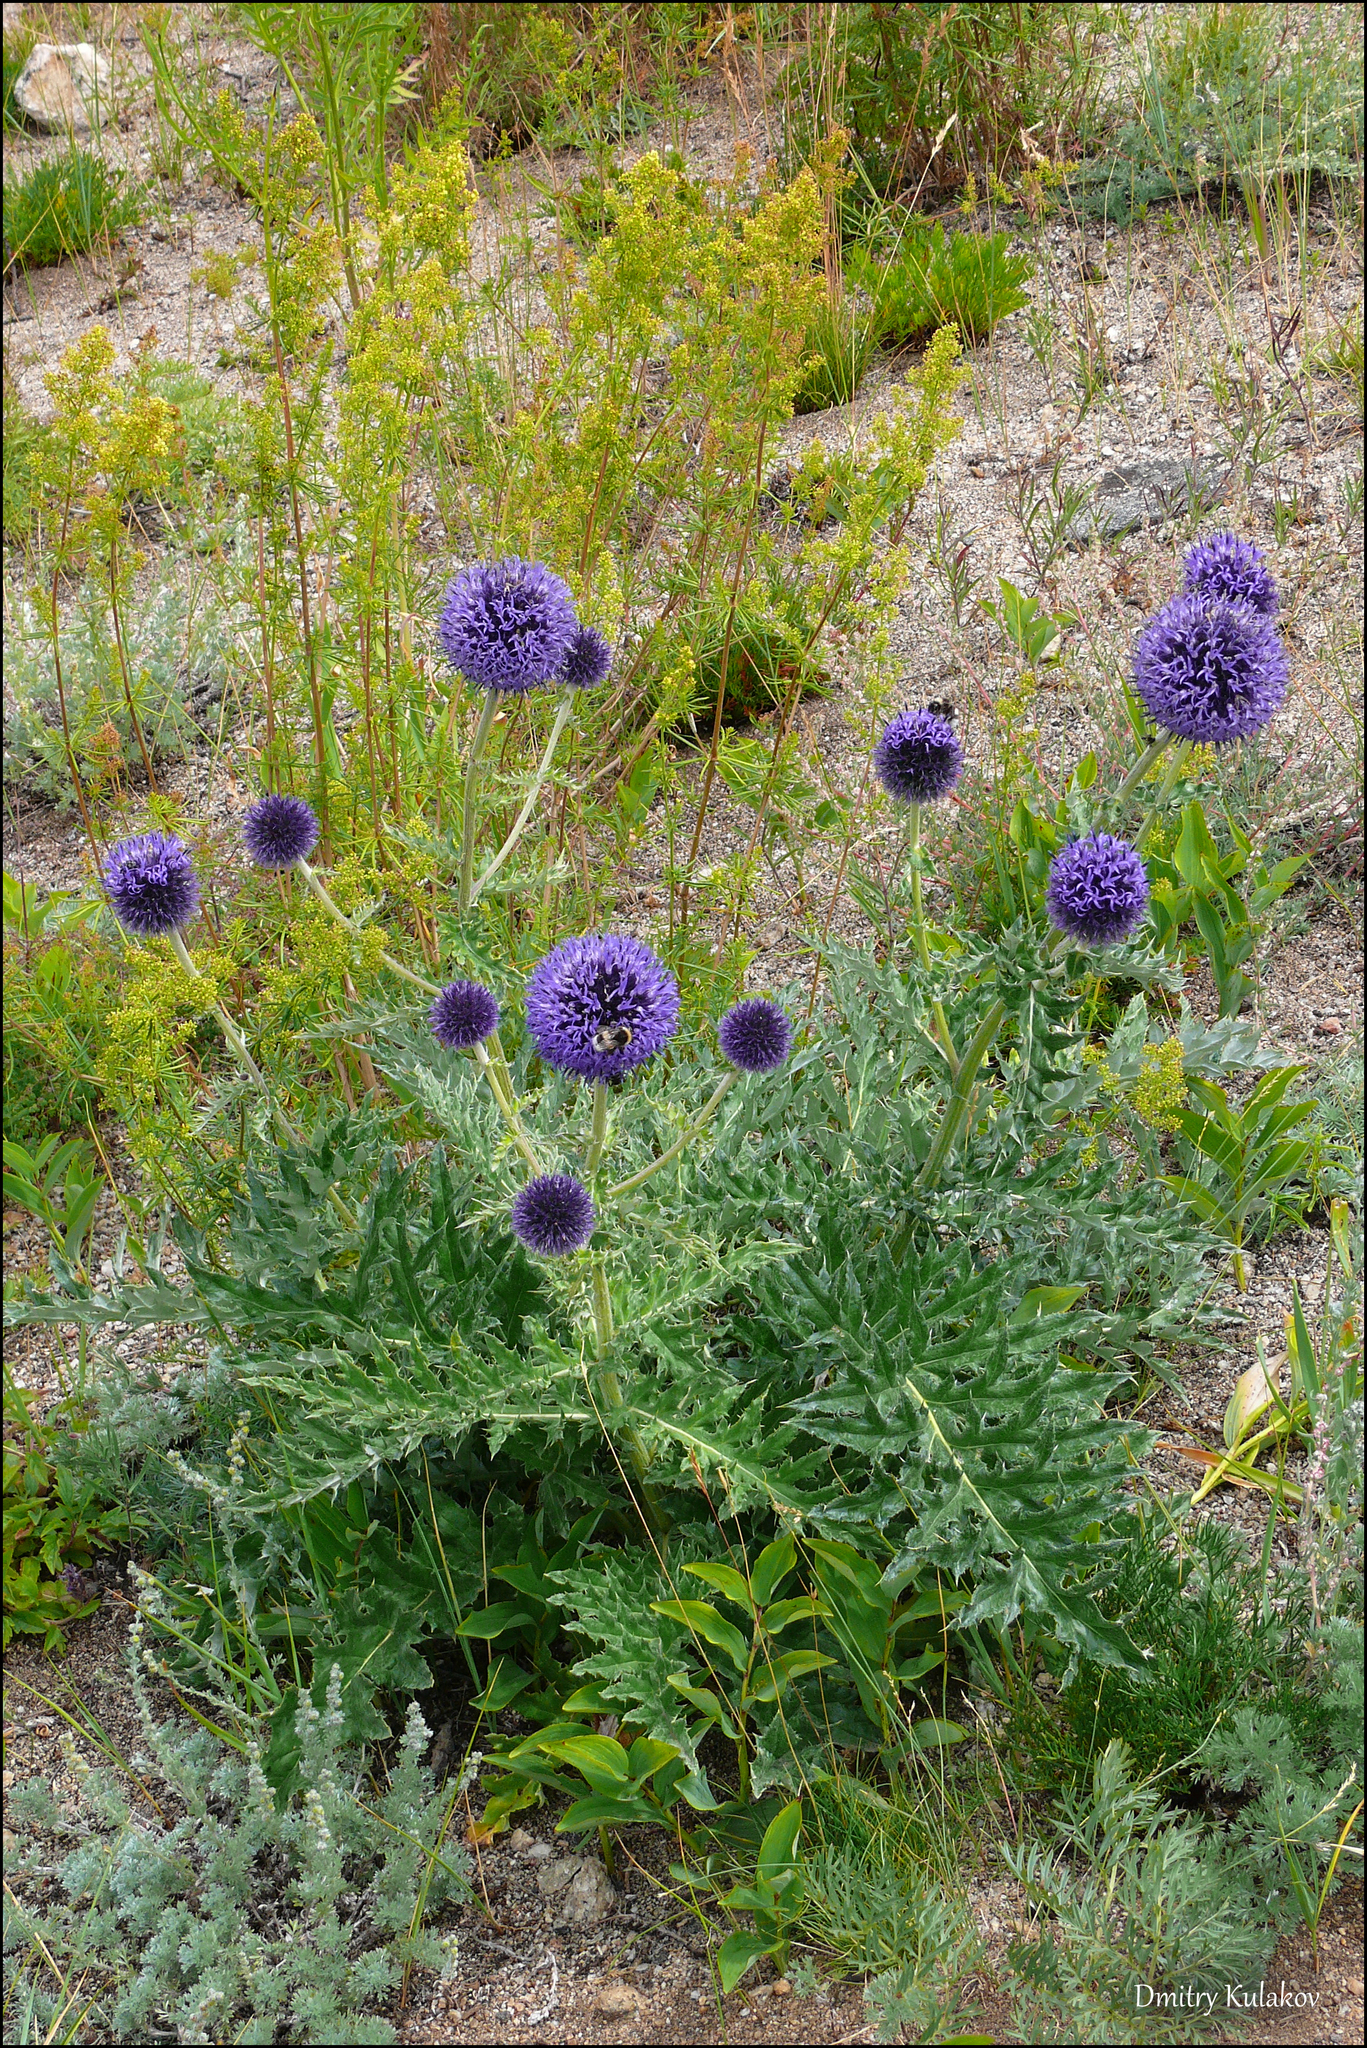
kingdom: Plantae
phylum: Tracheophyta
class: Magnoliopsida
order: Asterales
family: Asteraceae
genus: Echinops
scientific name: Echinops davuricus
